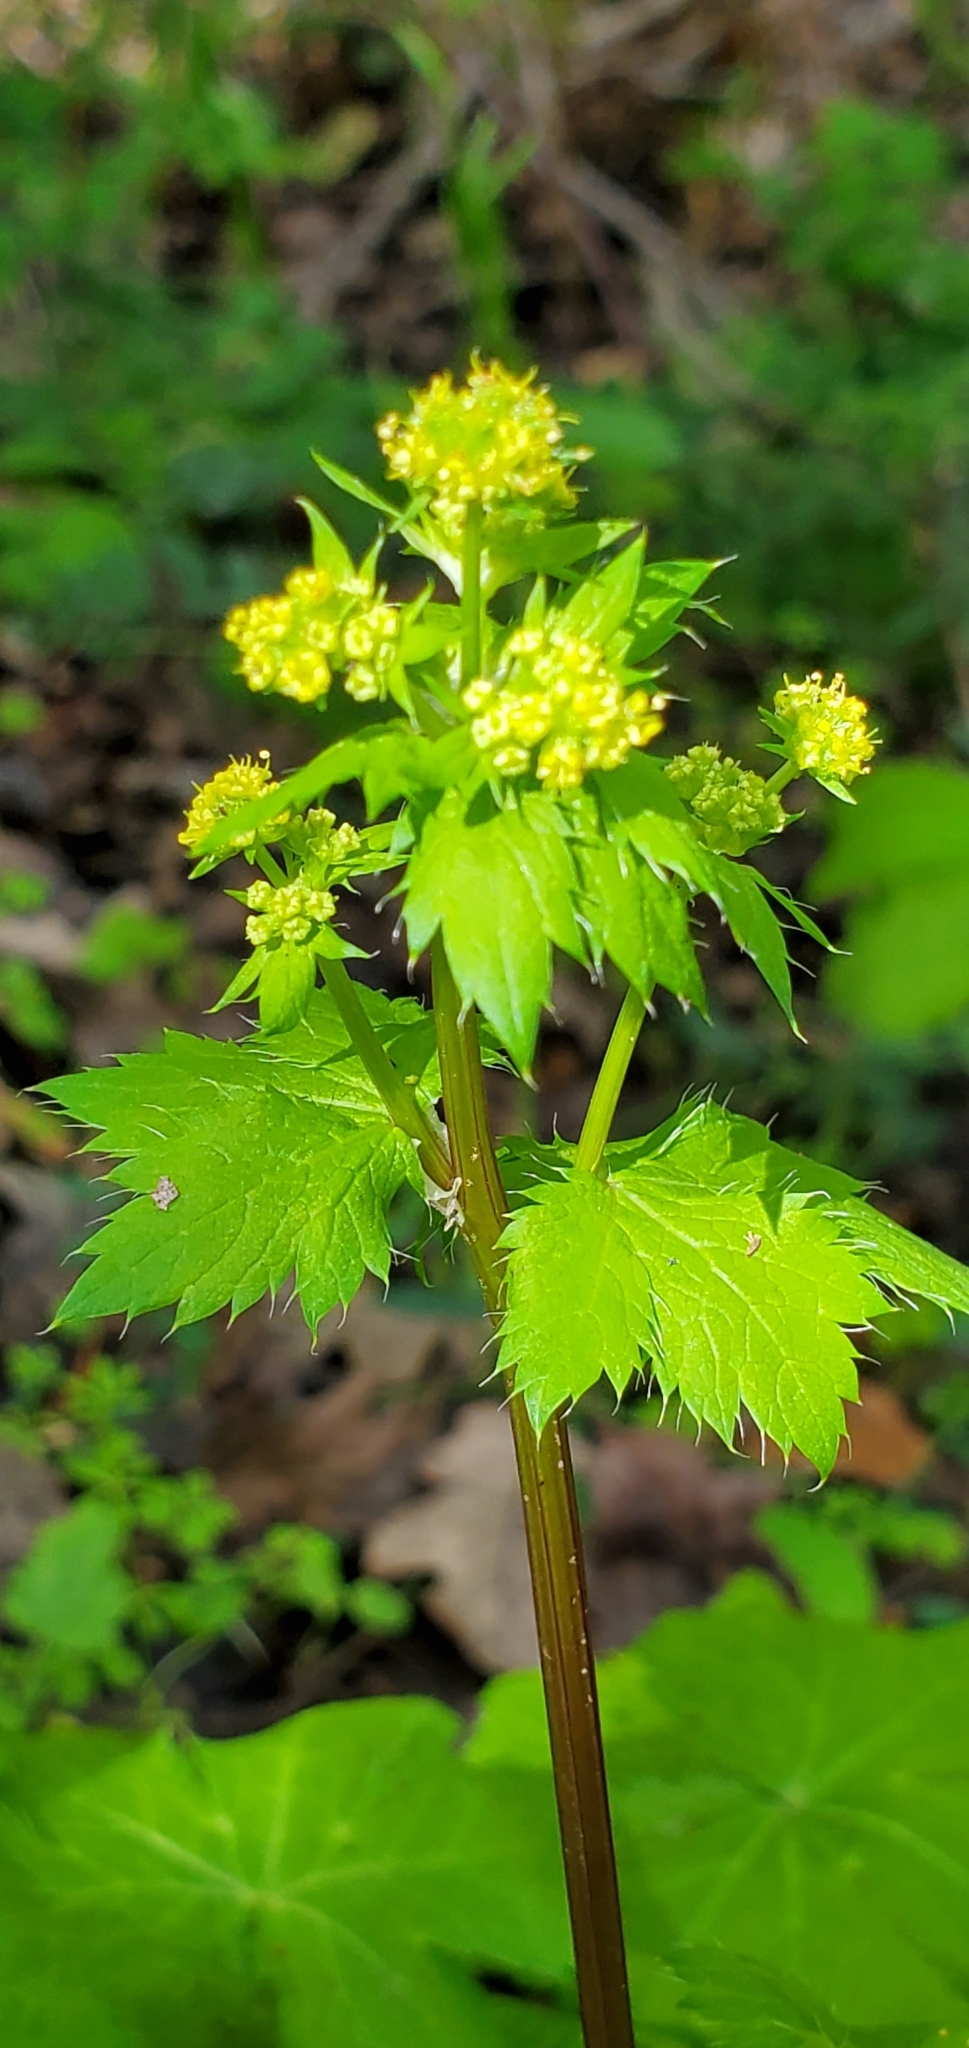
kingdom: Plantae
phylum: Tracheophyta
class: Magnoliopsida
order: Apiales
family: Apiaceae
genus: Sanicula
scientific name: Sanicula crassicaulis
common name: Western snakeroot
